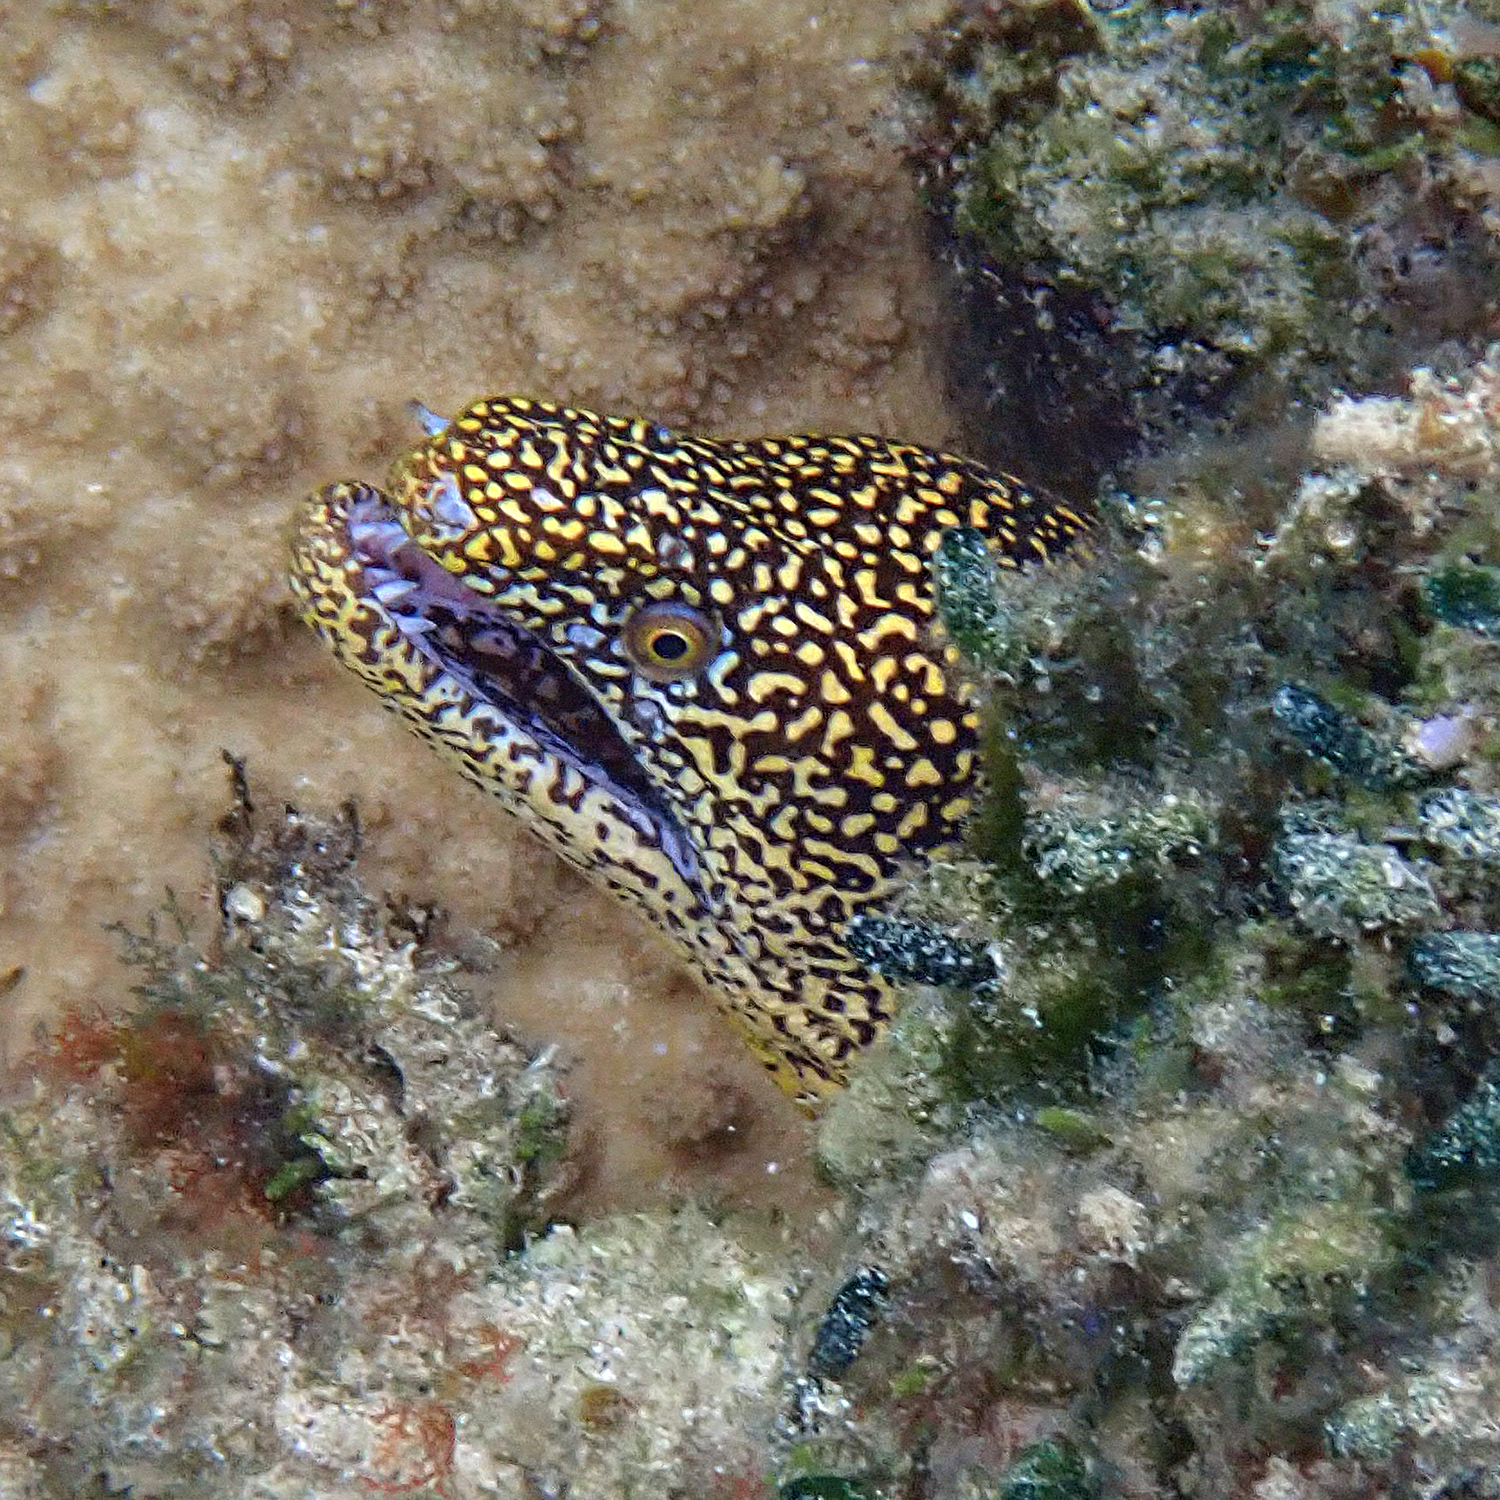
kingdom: Animalia
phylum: Chordata
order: Anguilliformes
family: Muraenidae
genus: Gymnothorax
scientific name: Gymnothorax eurostus
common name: Stout moray
